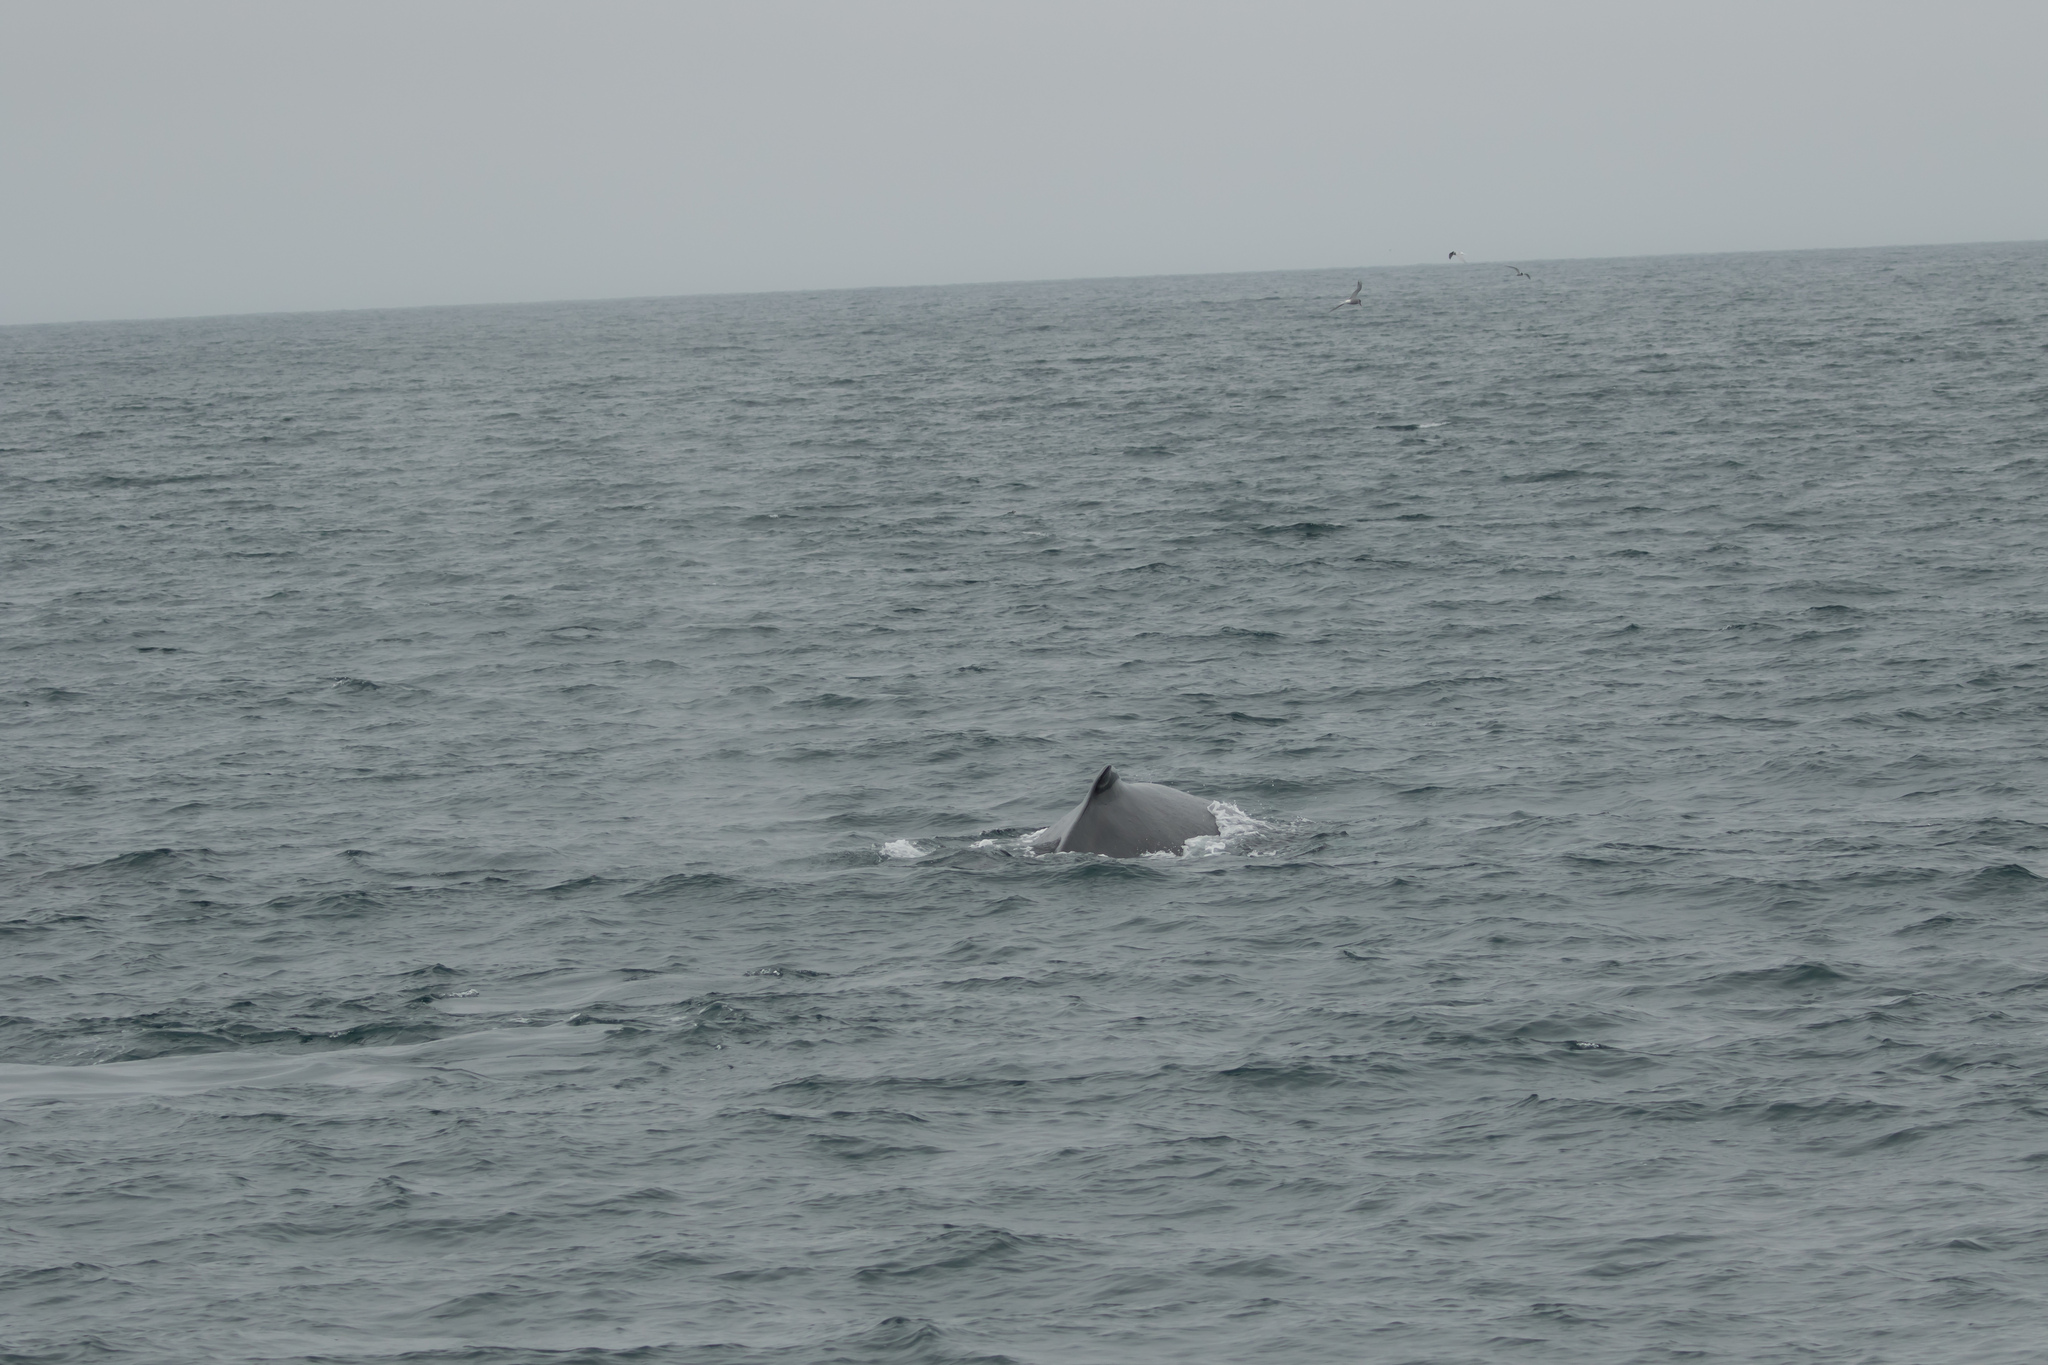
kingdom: Animalia
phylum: Chordata
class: Mammalia
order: Cetacea
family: Balaenopteridae
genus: Megaptera
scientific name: Megaptera novaeangliae
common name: Humpback whale
